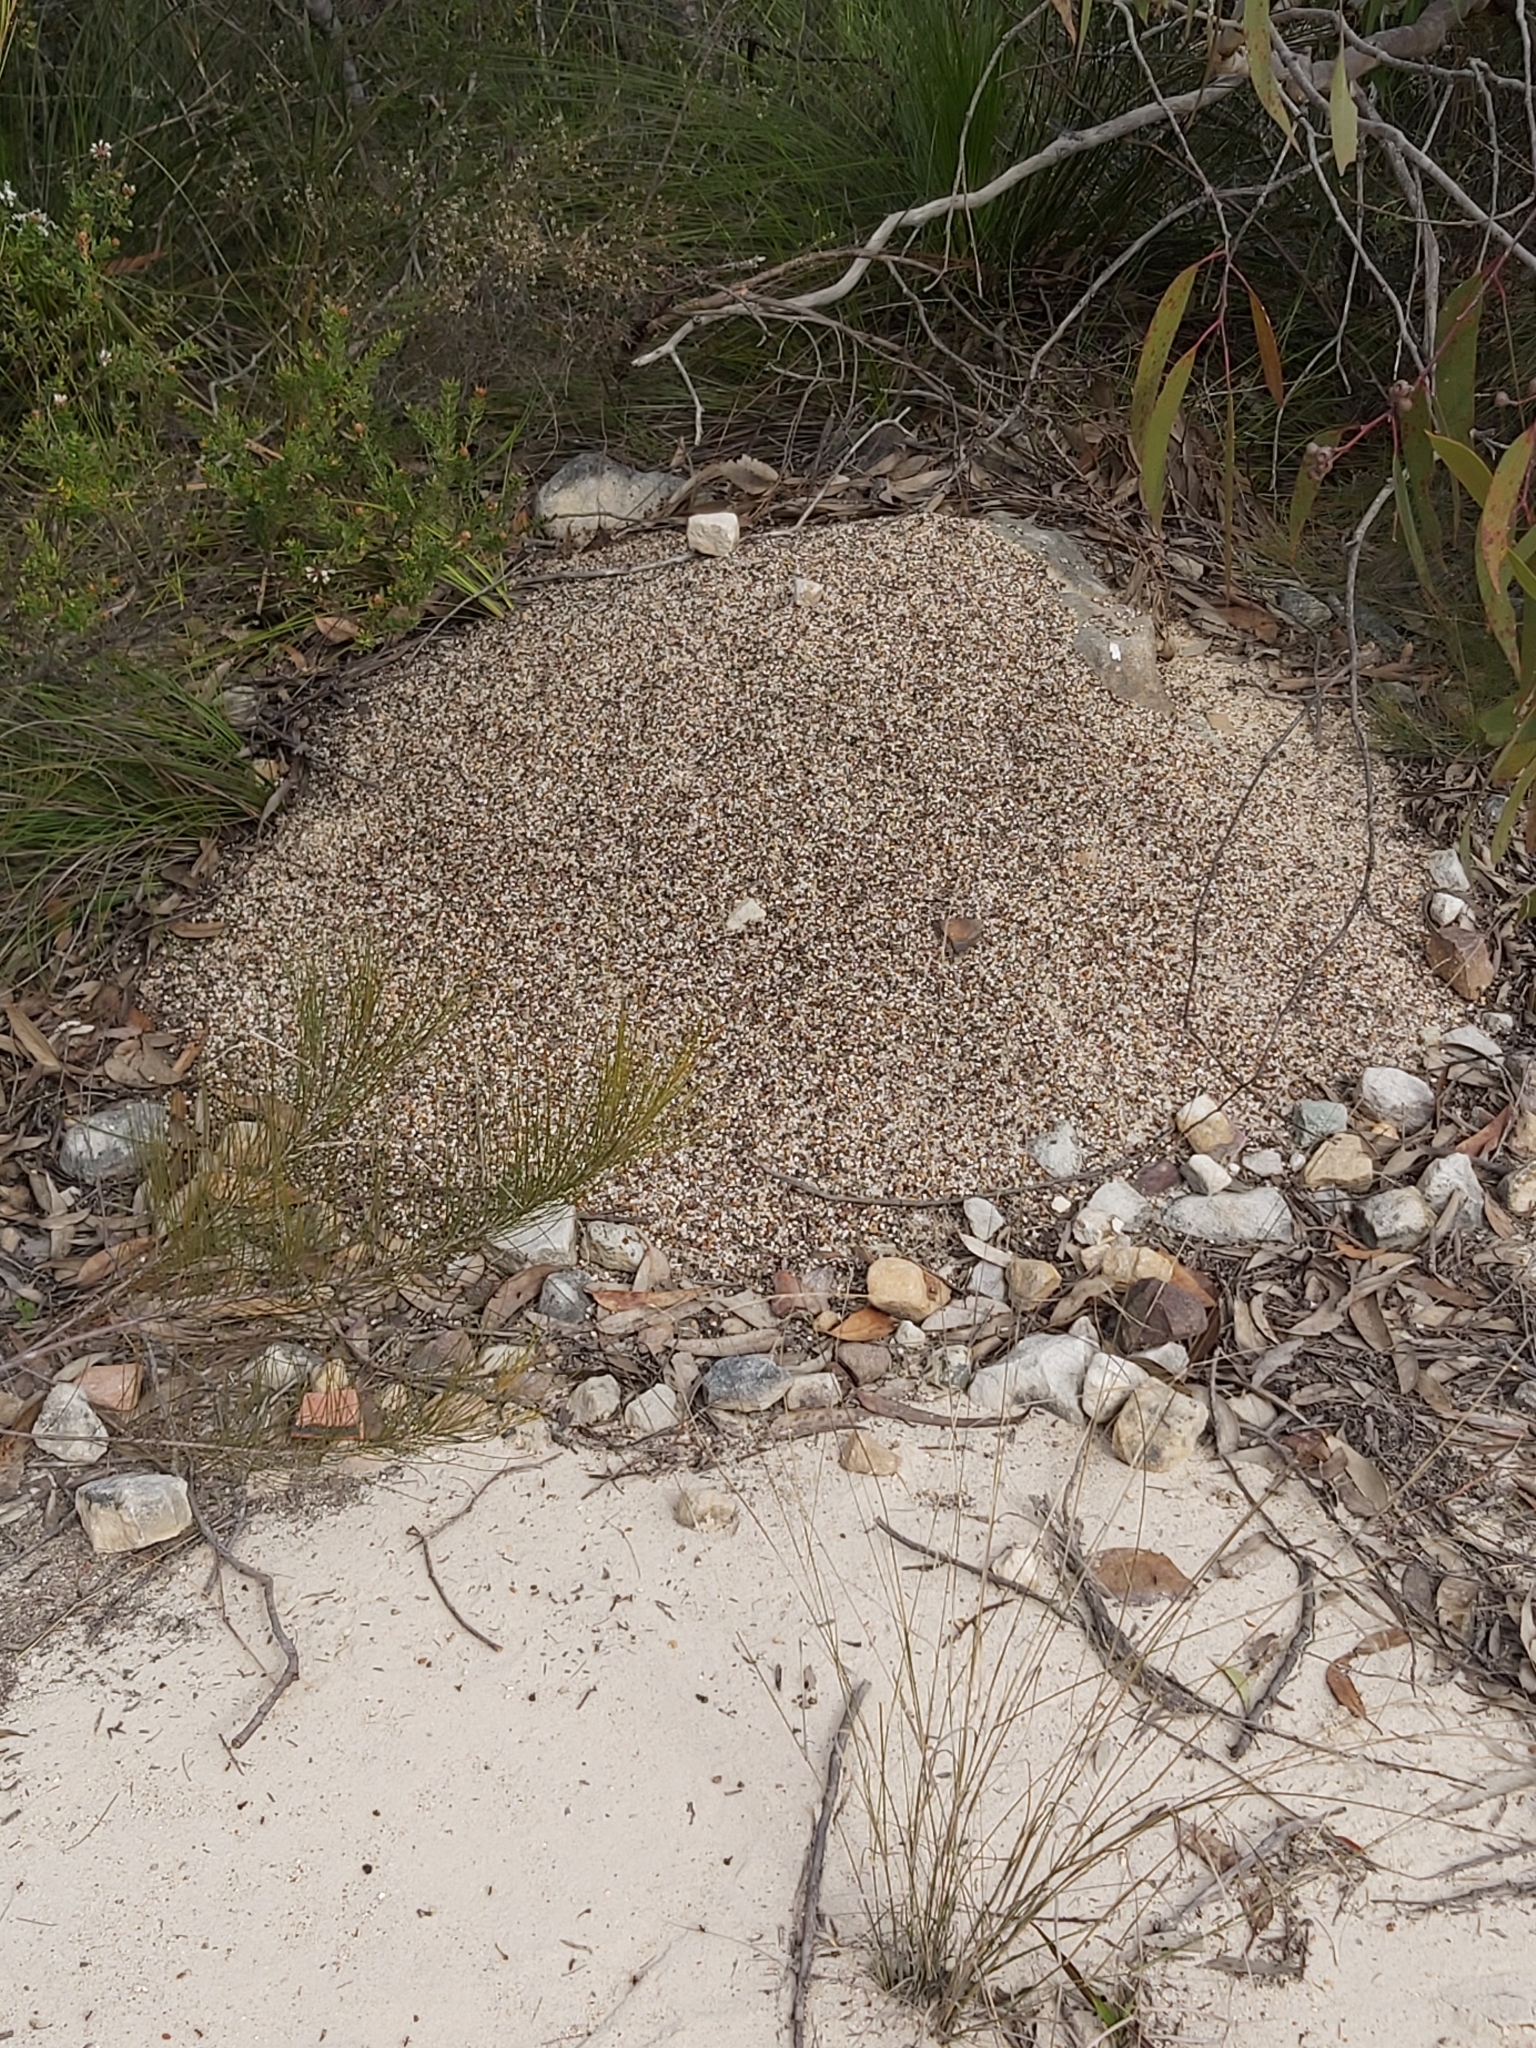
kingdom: Animalia
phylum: Arthropoda
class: Insecta
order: Hymenoptera
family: Formicidae
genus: Iridomyrmex
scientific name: Iridomyrmex purpureus
